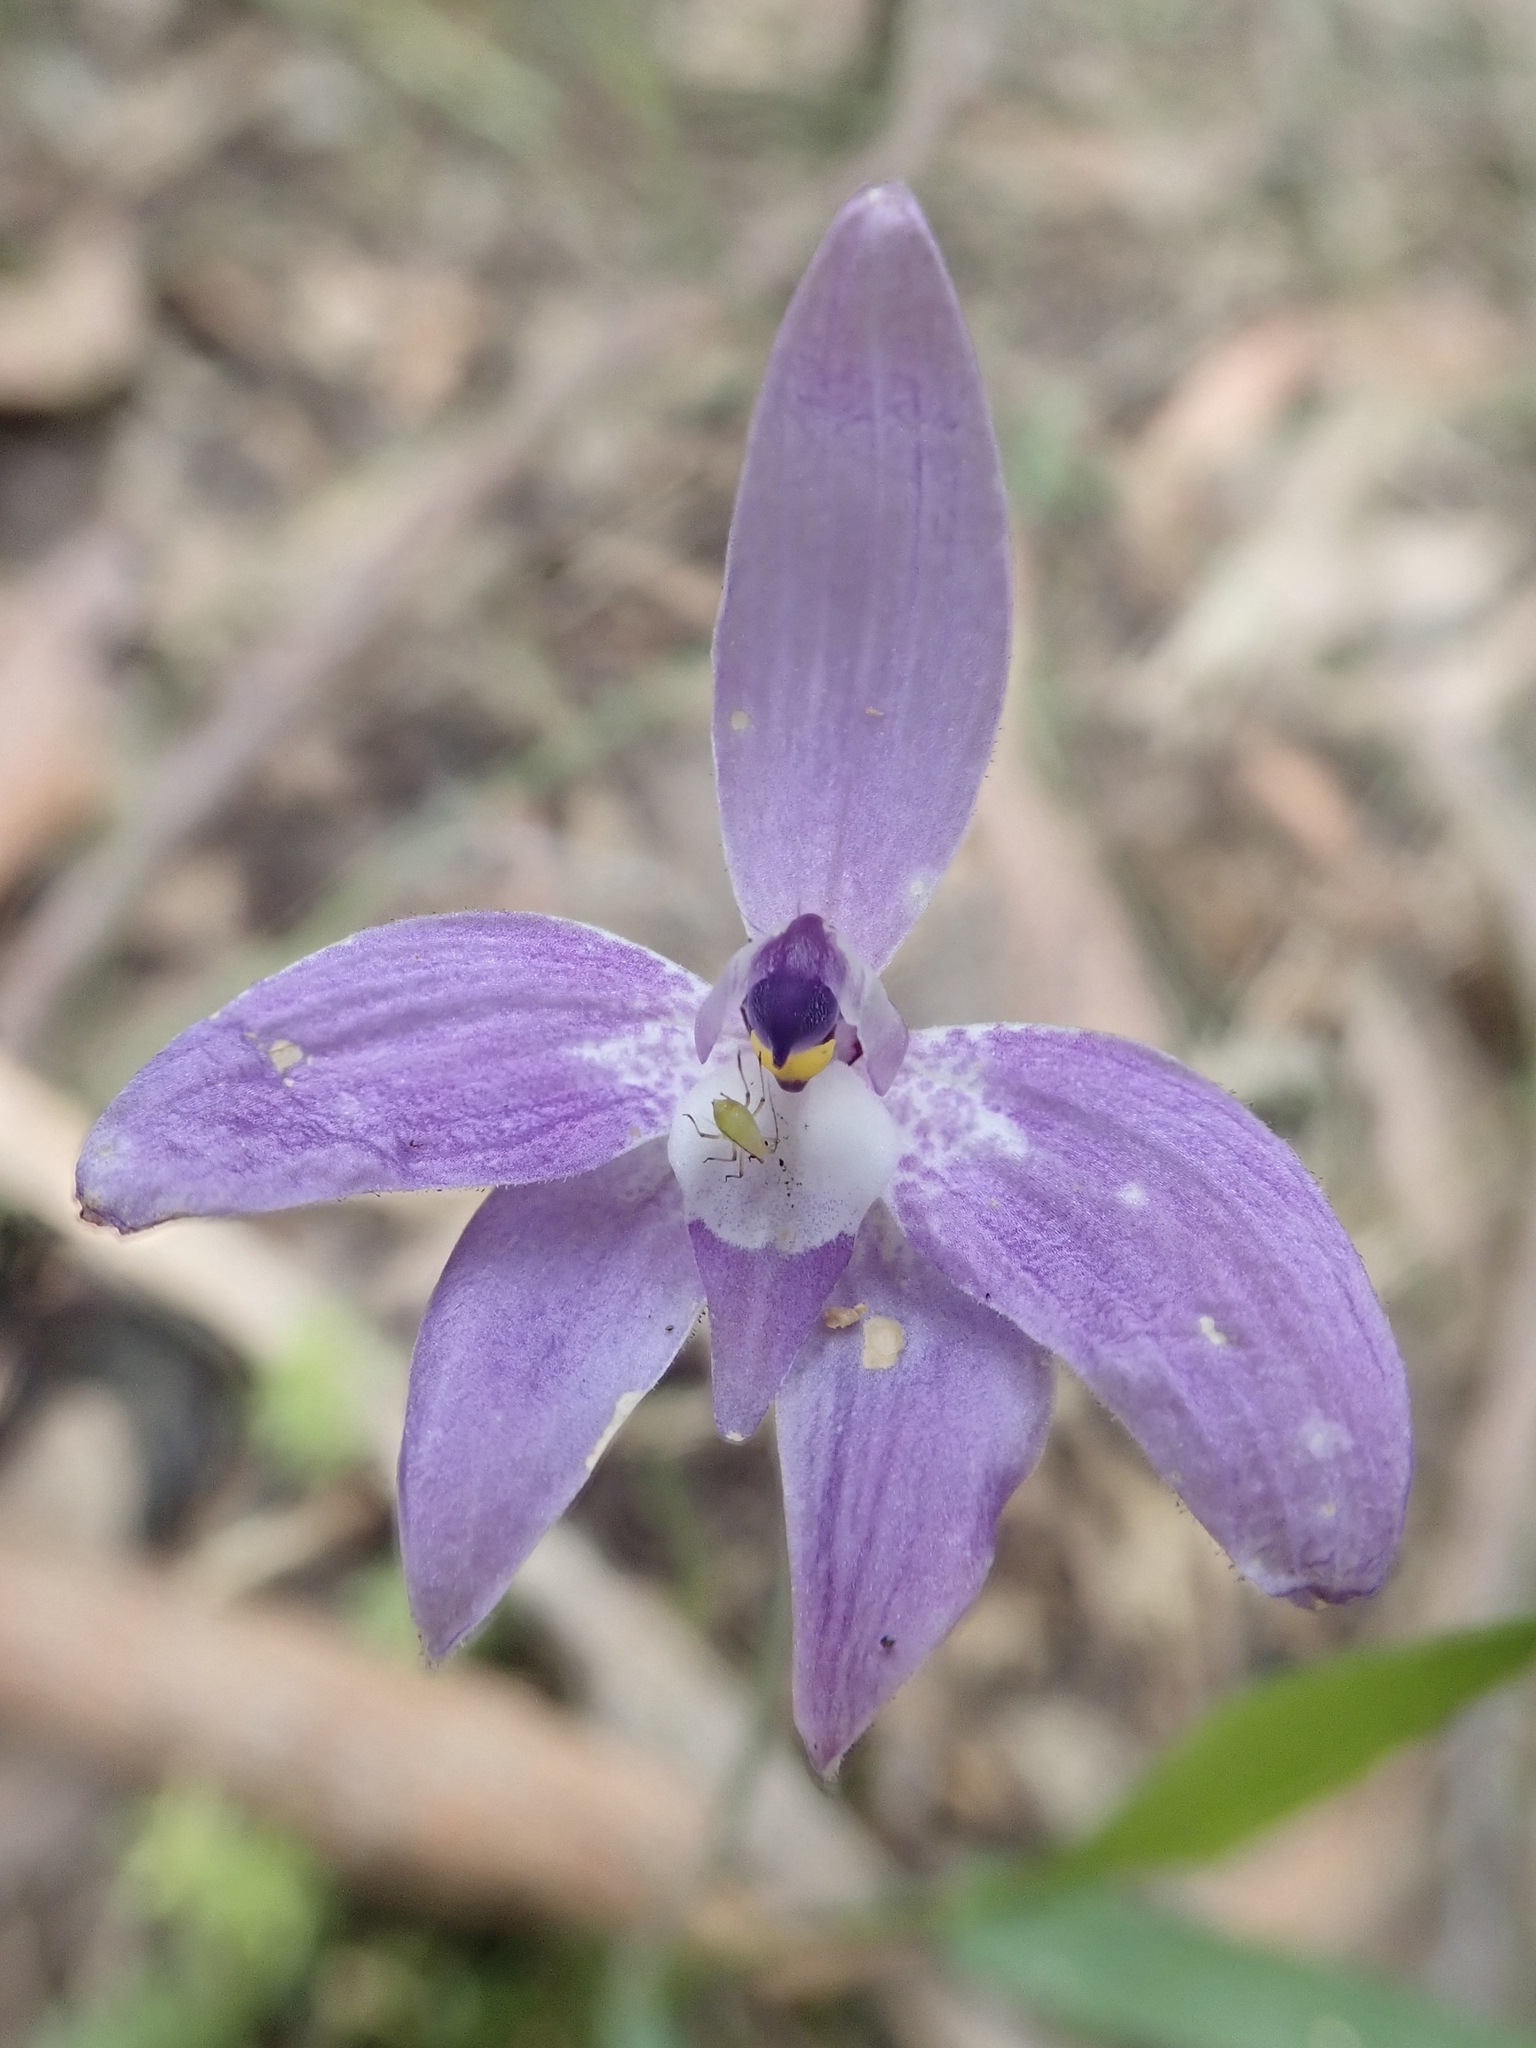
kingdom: Plantae
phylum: Tracheophyta
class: Liliopsida
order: Asparagales
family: Orchidaceae
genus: Caladenia
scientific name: Caladenia major
